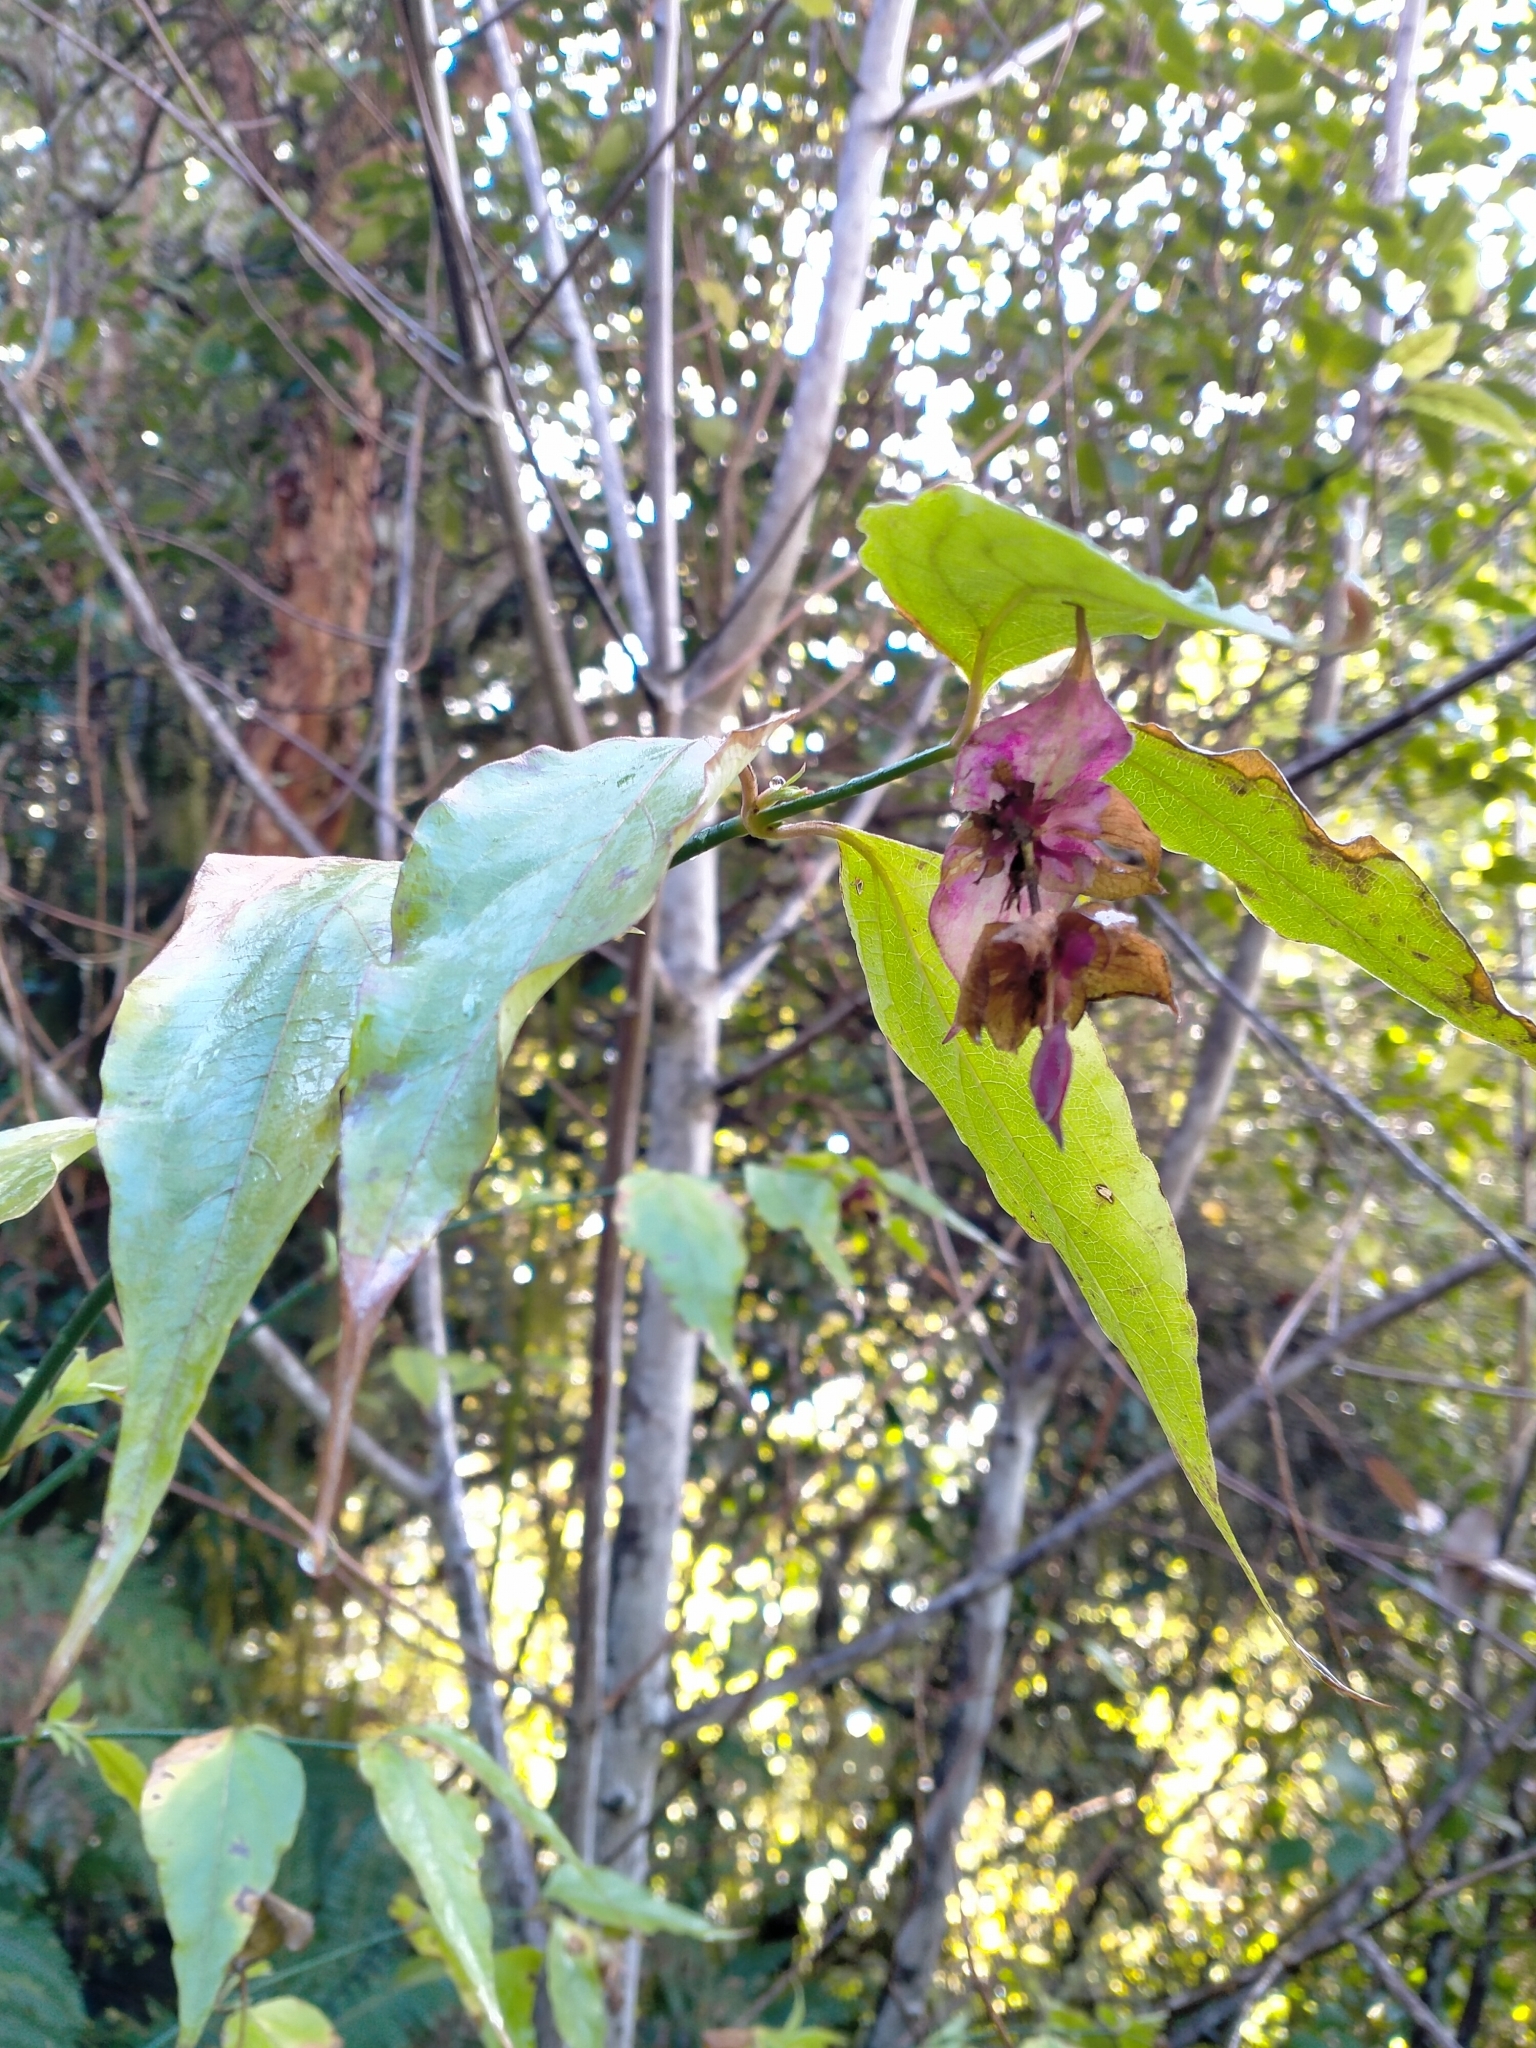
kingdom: Plantae
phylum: Tracheophyta
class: Magnoliopsida
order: Dipsacales
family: Caprifoliaceae
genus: Leycesteria
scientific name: Leycesteria formosa
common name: Himalayan honeysuckle
